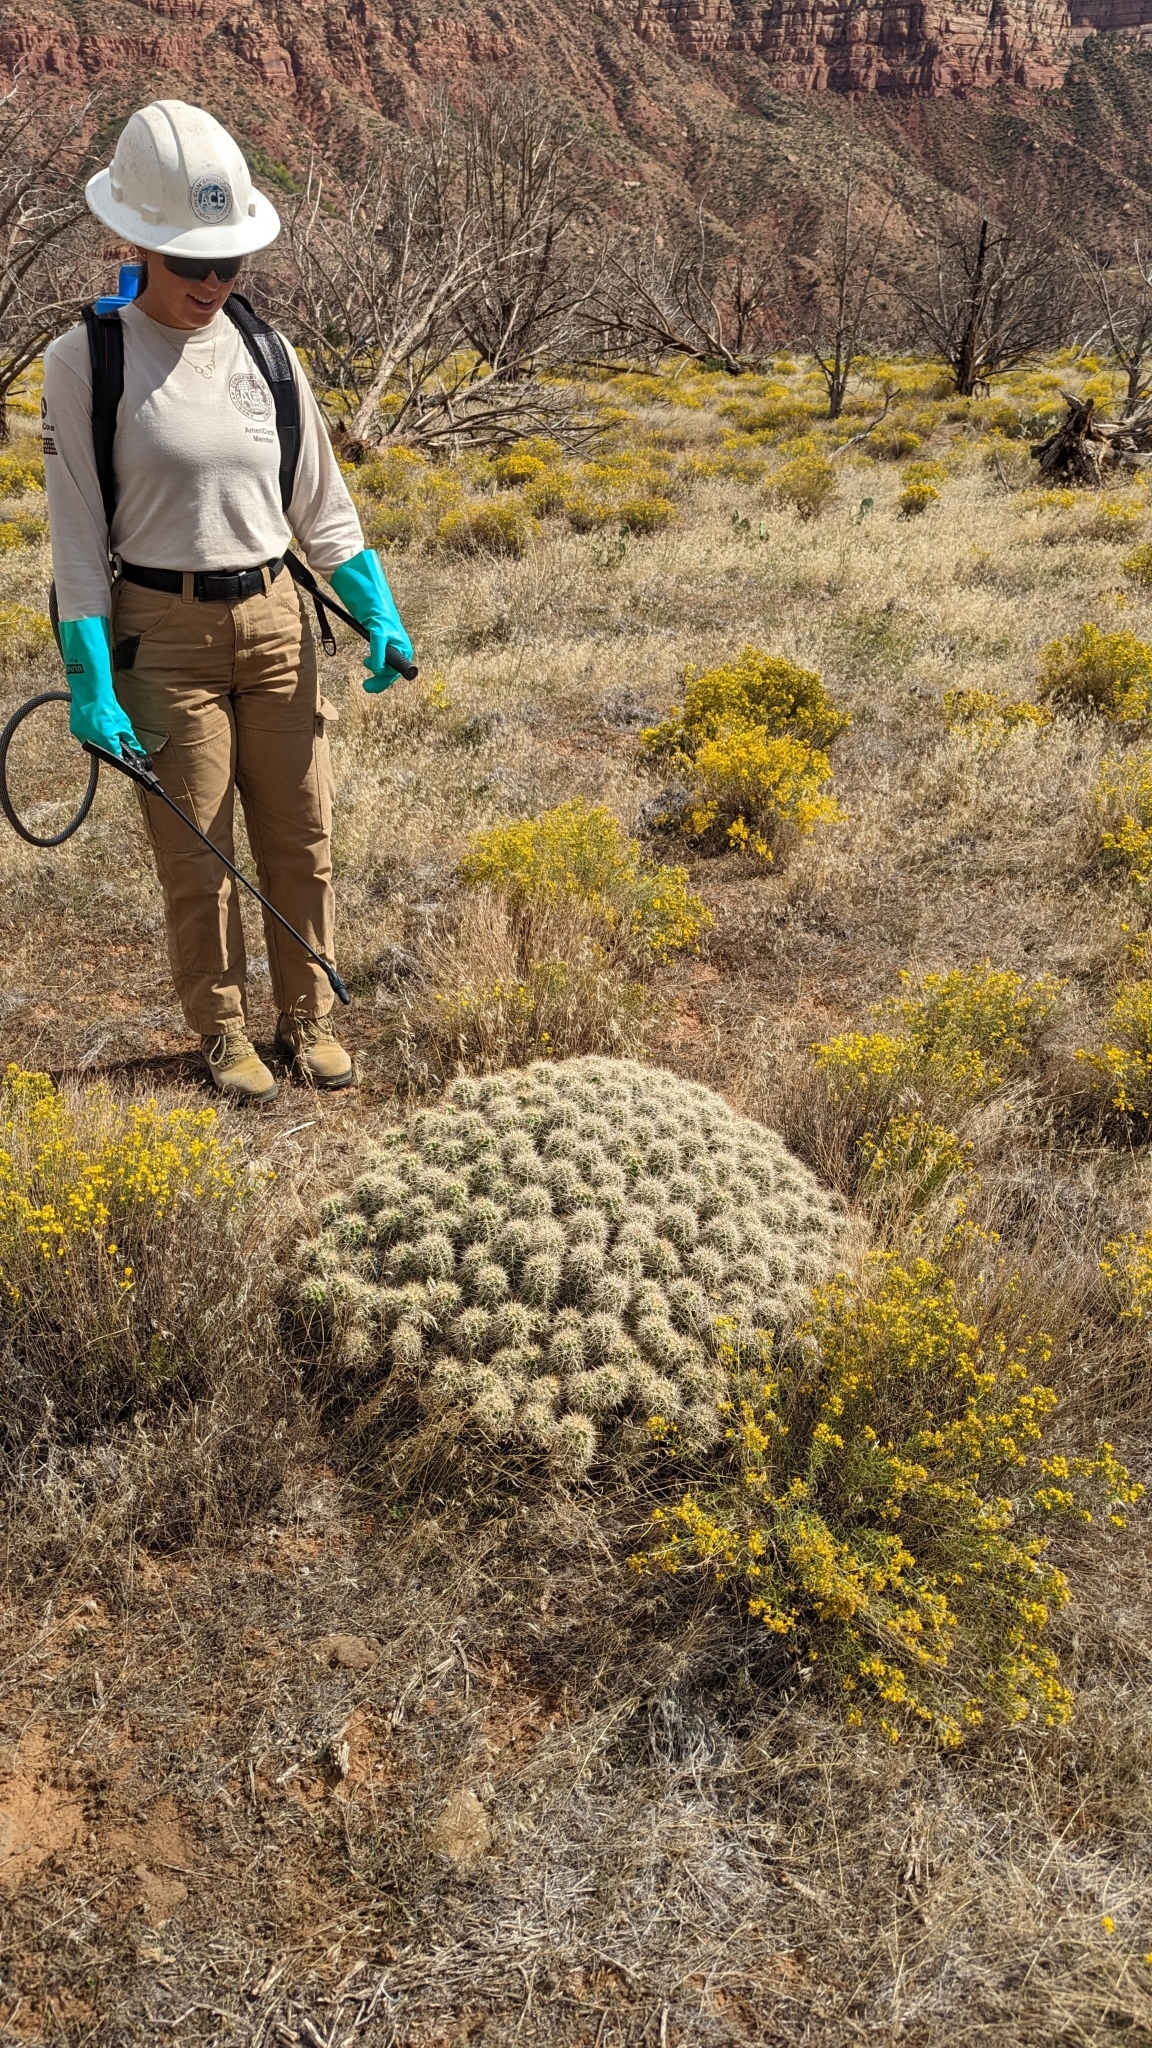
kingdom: Plantae
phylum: Tracheophyta
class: Magnoliopsida
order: Caryophyllales
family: Cactaceae
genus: Echinocereus
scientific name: Echinocereus bakeri
